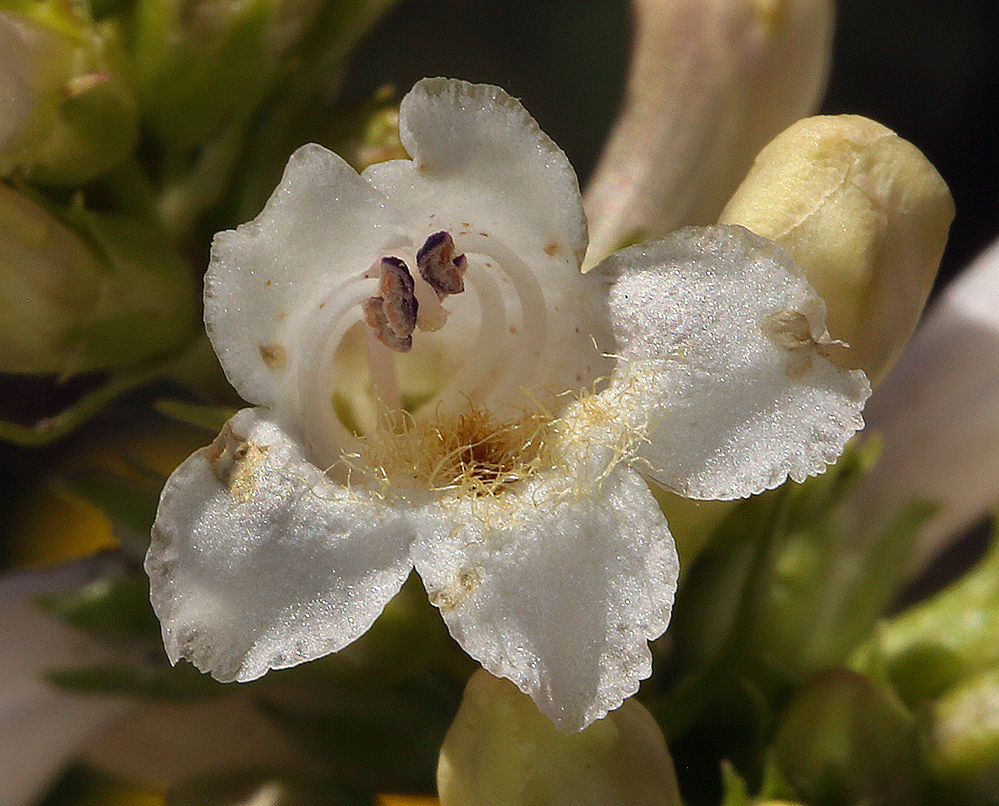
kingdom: Plantae
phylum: Tracheophyta
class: Magnoliopsida
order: Lamiales
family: Plantaginaceae
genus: Penstemon
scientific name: Penstemon pratensis
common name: White-flower penstemon
